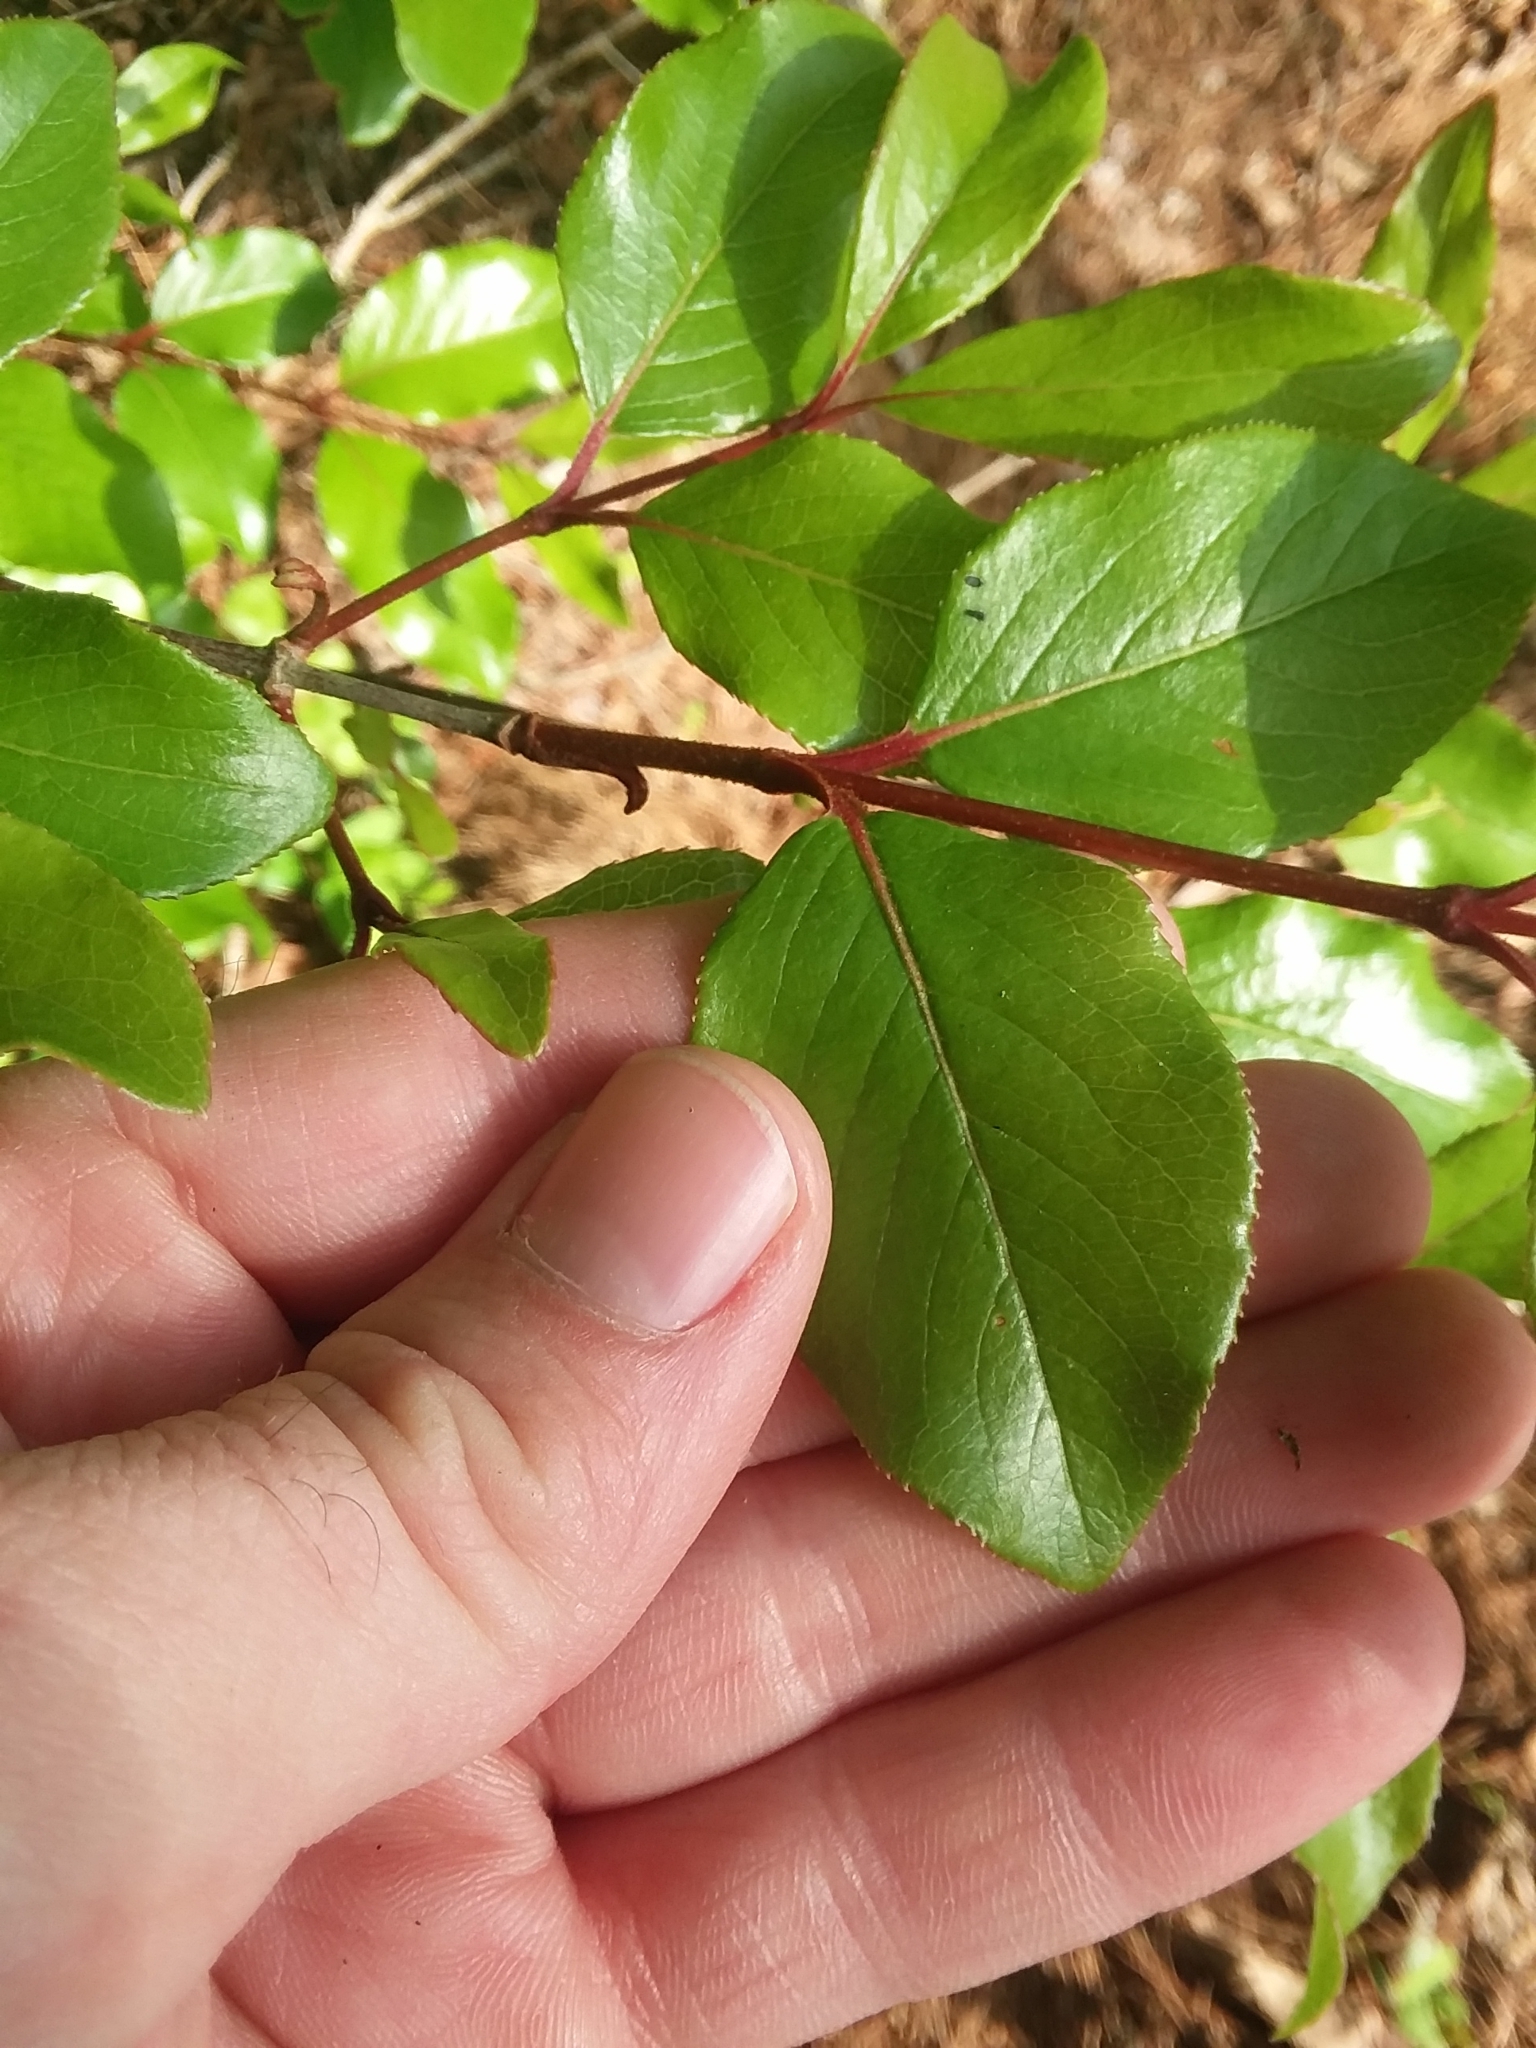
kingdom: Plantae
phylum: Tracheophyta
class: Magnoliopsida
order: Dipsacales
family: Viburnaceae
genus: Viburnum
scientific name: Viburnum rufidulum
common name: Blue haw
